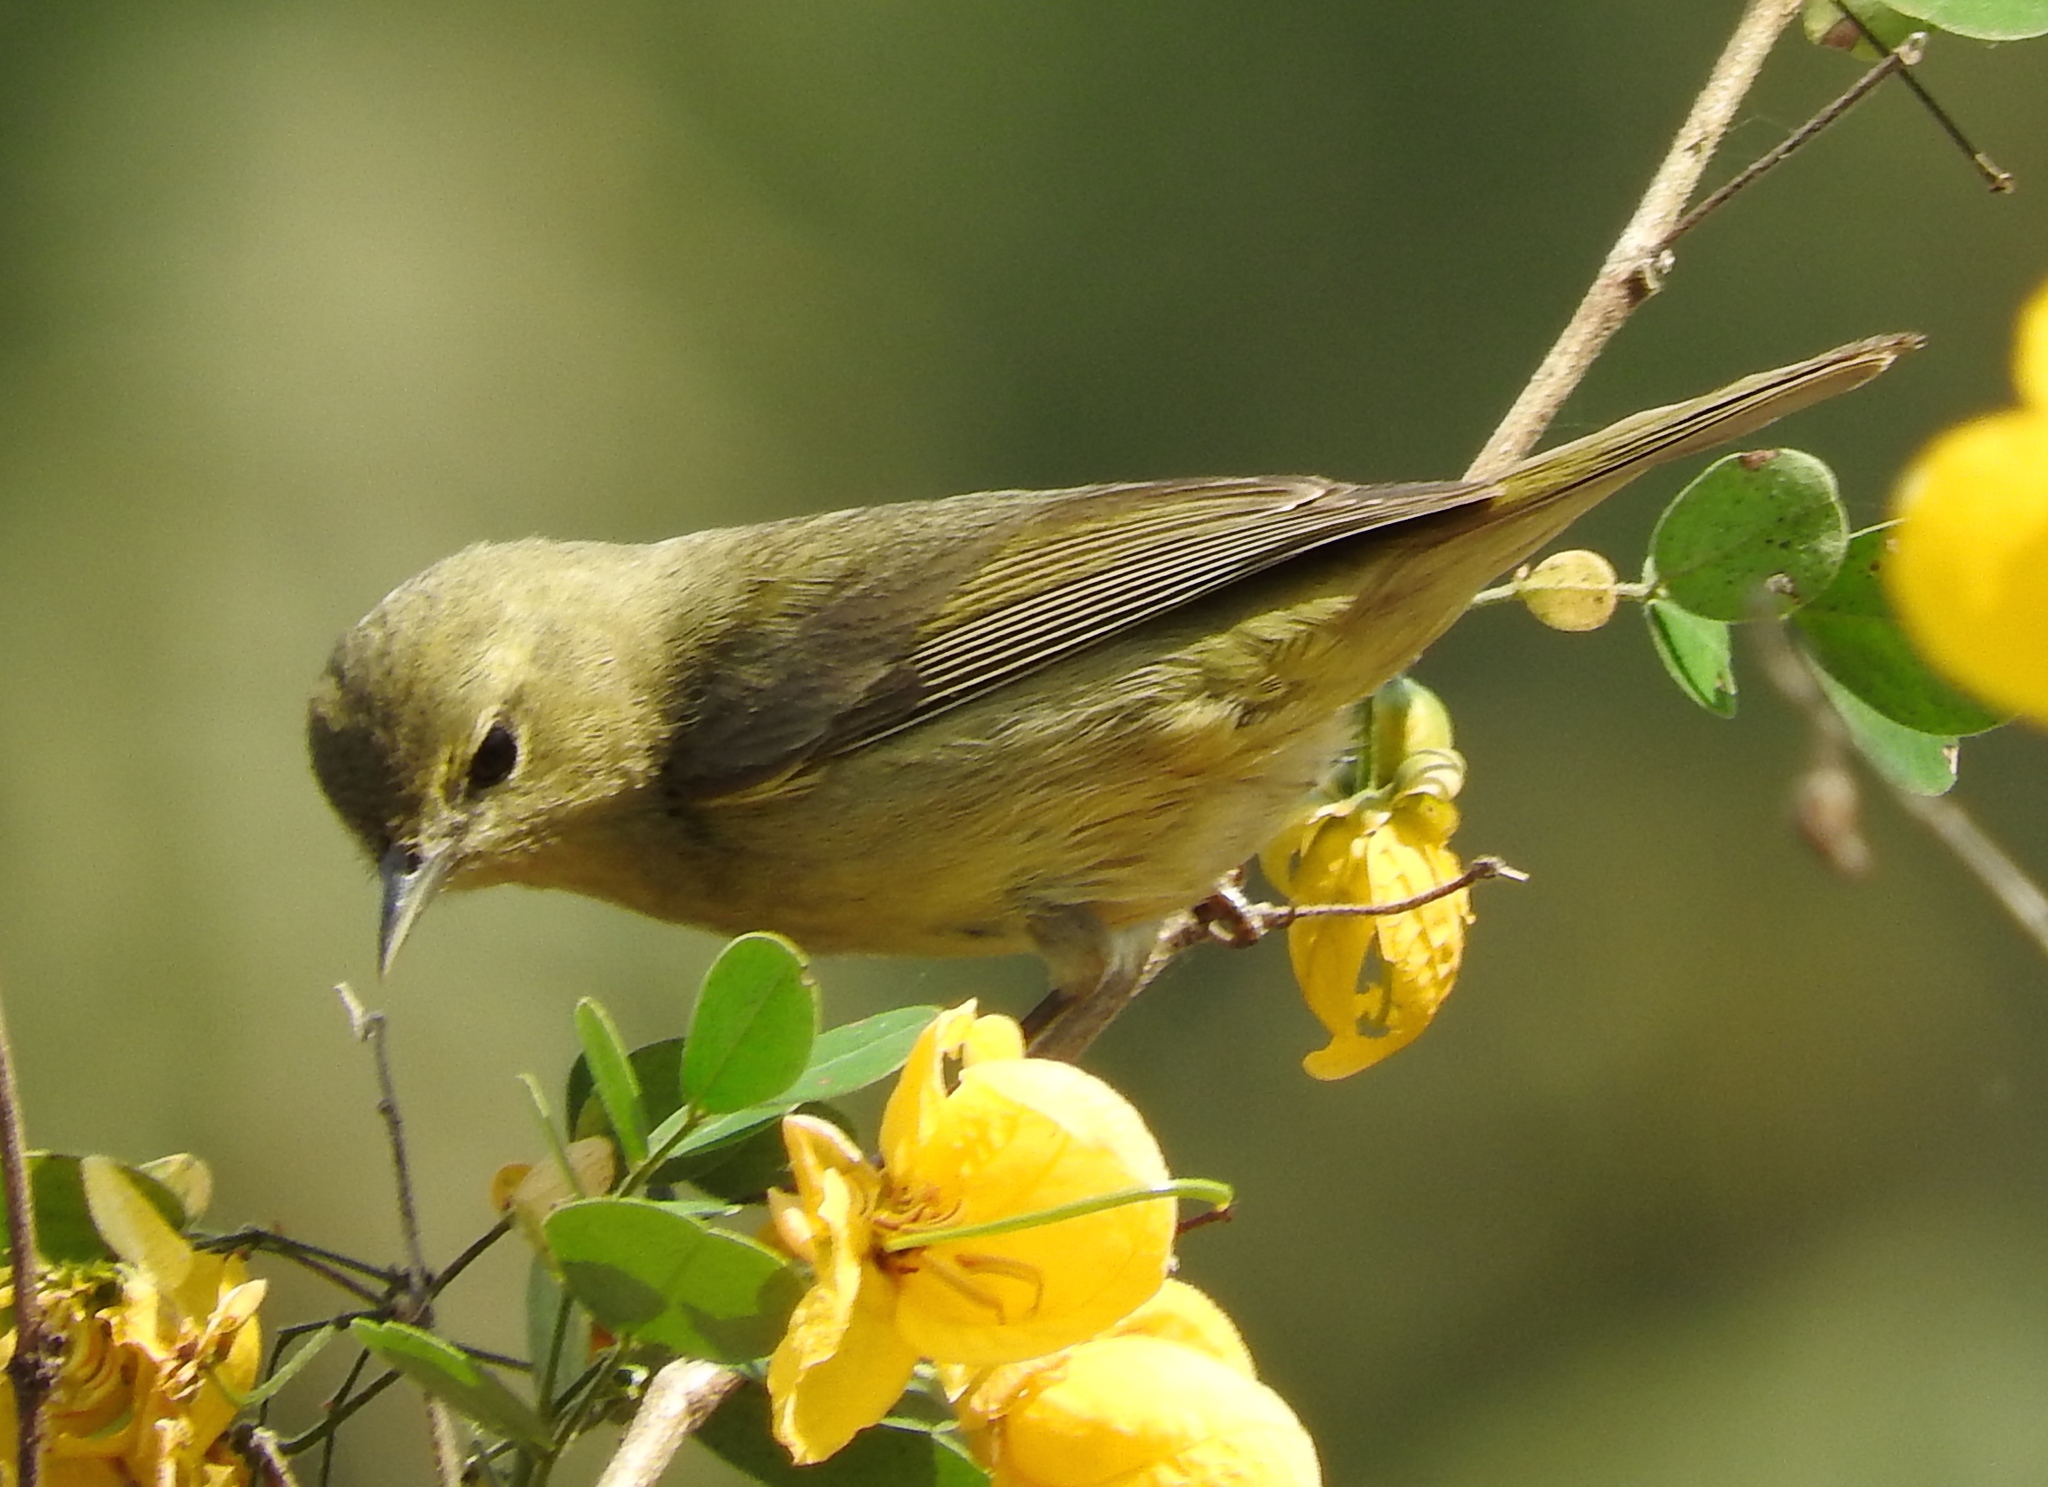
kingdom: Animalia
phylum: Chordata
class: Aves
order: Passeriformes
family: Parulidae
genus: Leiothlypis
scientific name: Leiothlypis celata
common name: Orange-crowned warbler
